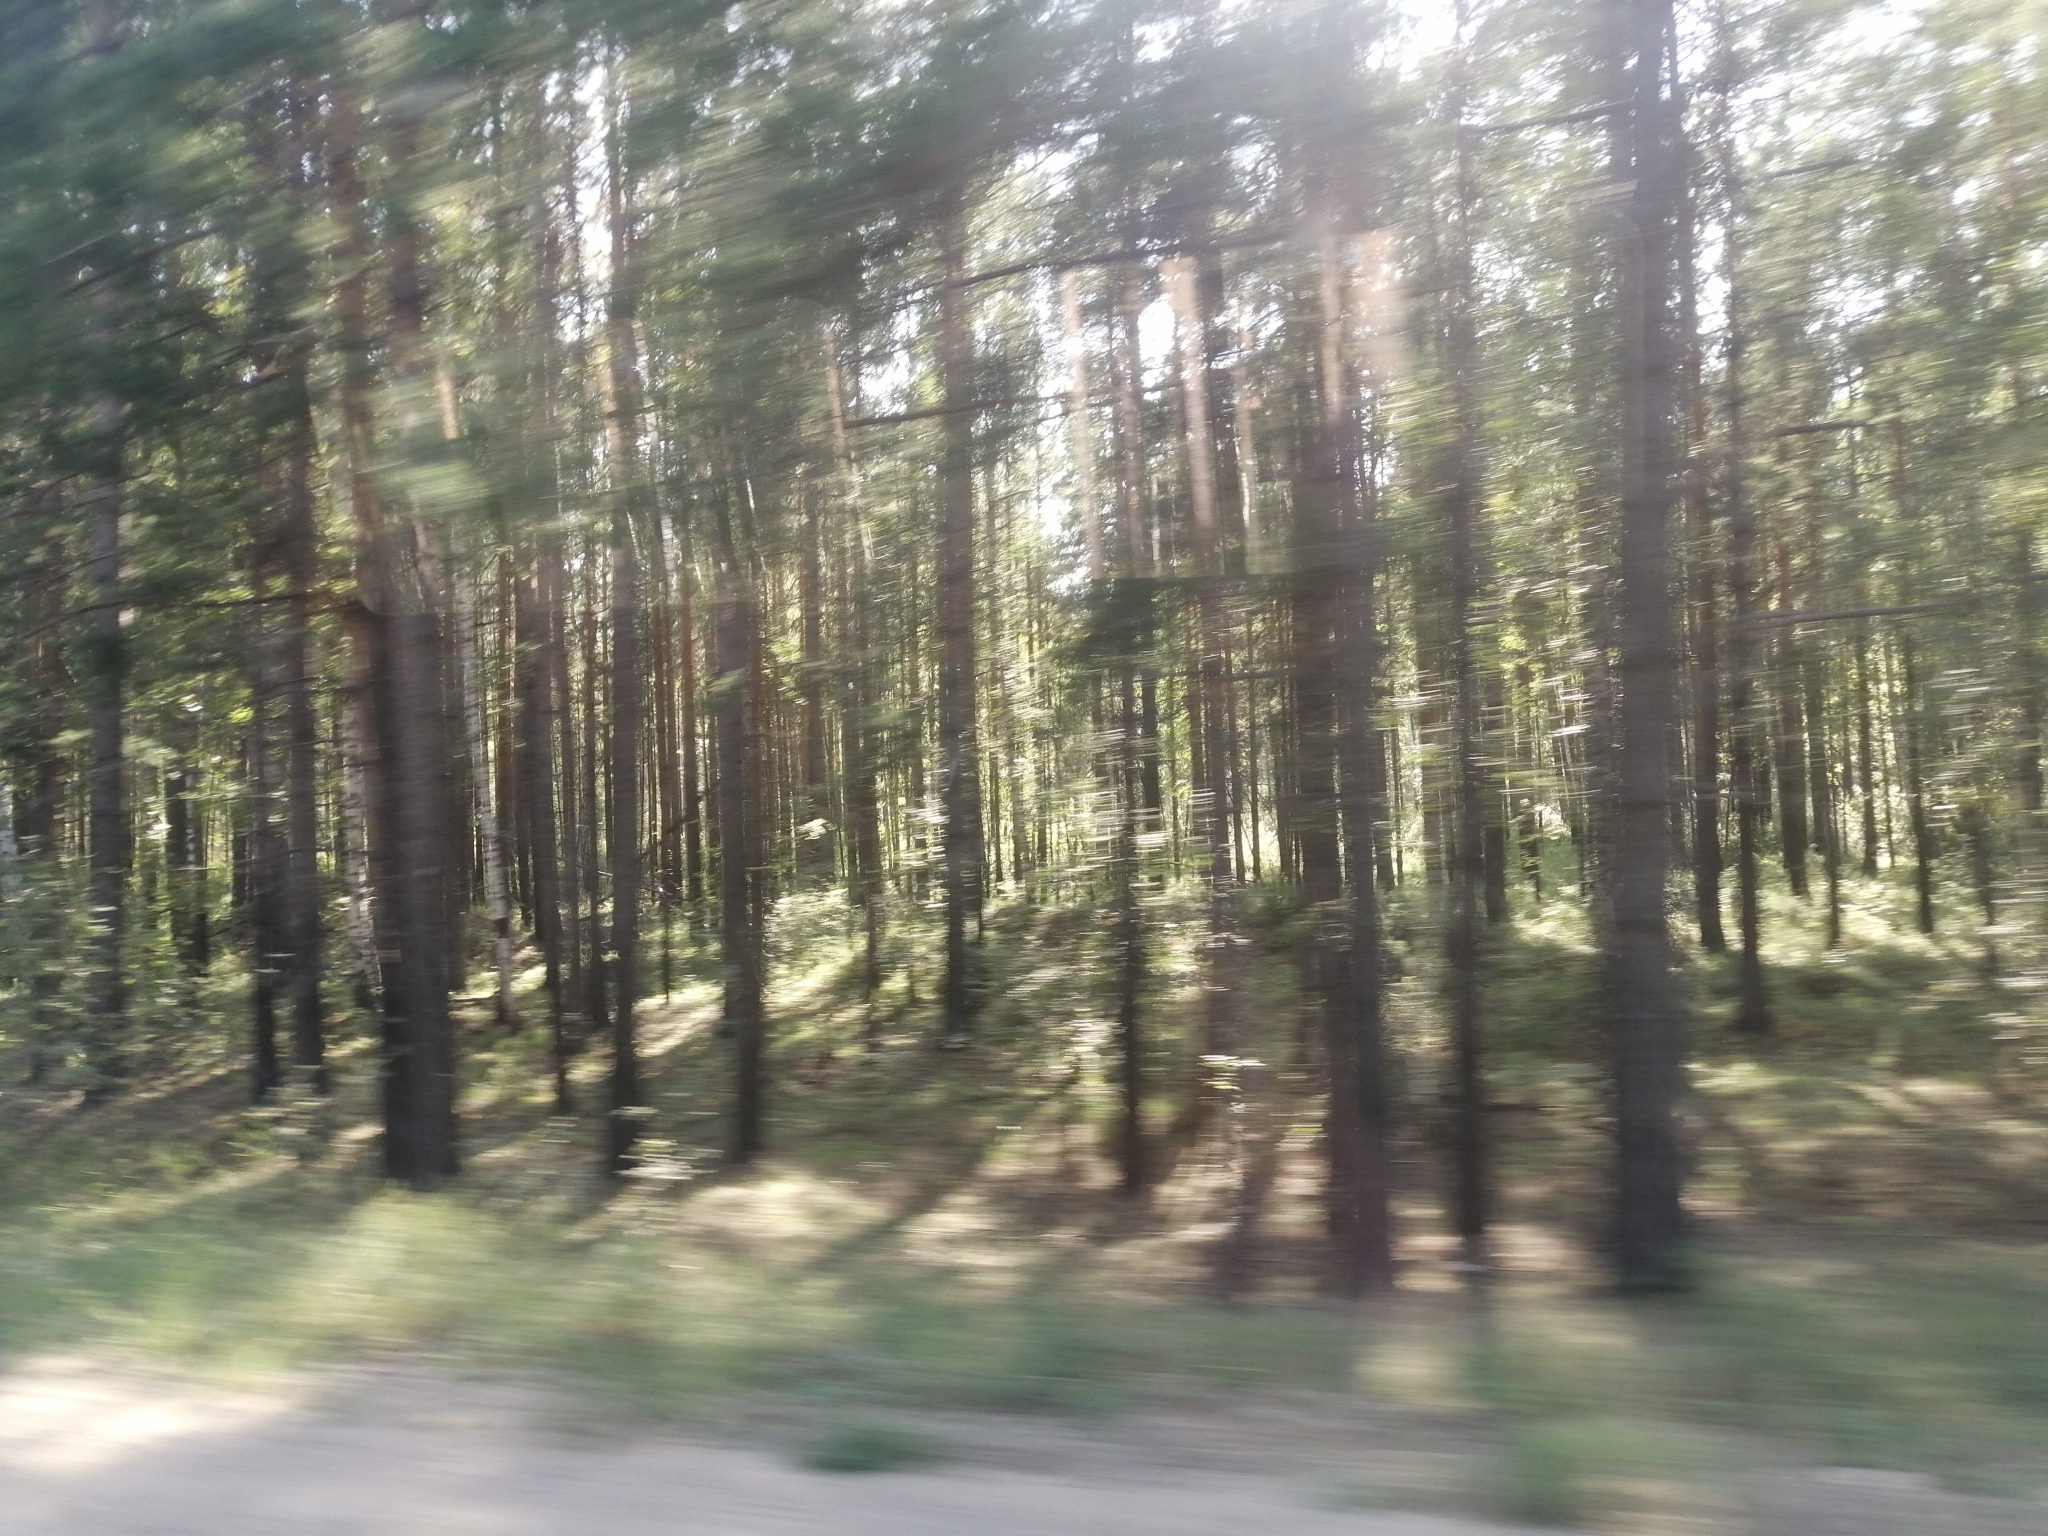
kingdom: Plantae
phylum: Tracheophyta
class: Pinopsida
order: Pinales
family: Pinaceae
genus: Pinus
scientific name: Pinus sylvestris
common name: Scots pine
